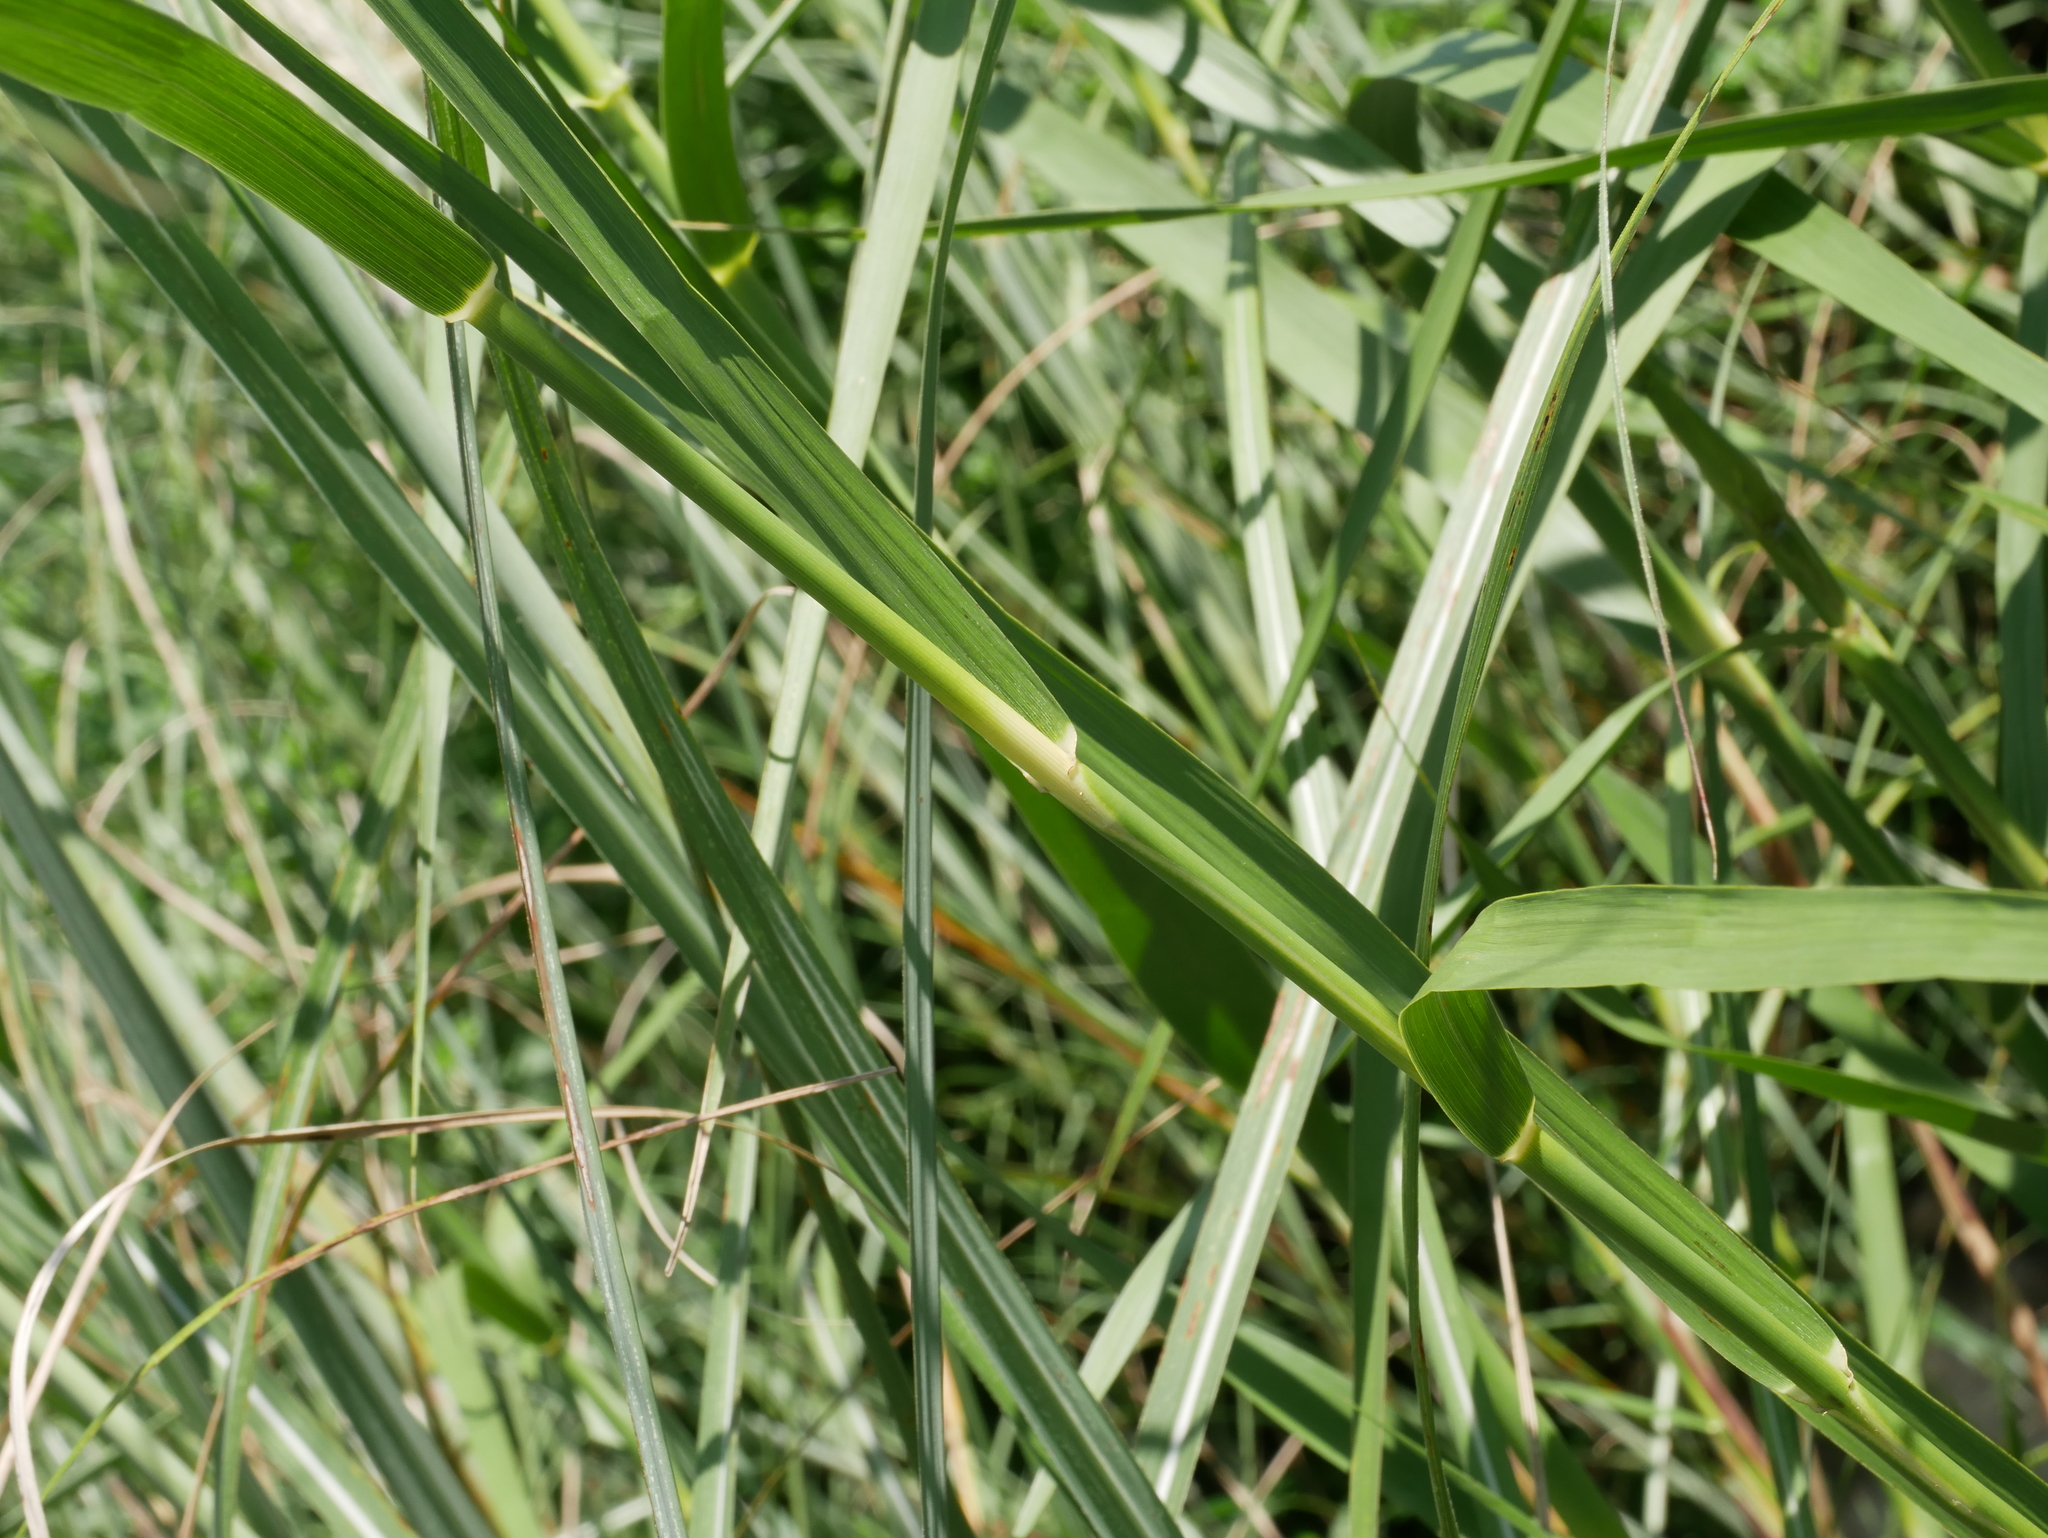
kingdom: Plantae
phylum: Tracheophyta
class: Liliopsida
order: Poales
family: Poaceae
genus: Phragmites
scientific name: Phragmites karka
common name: Tropical reed
